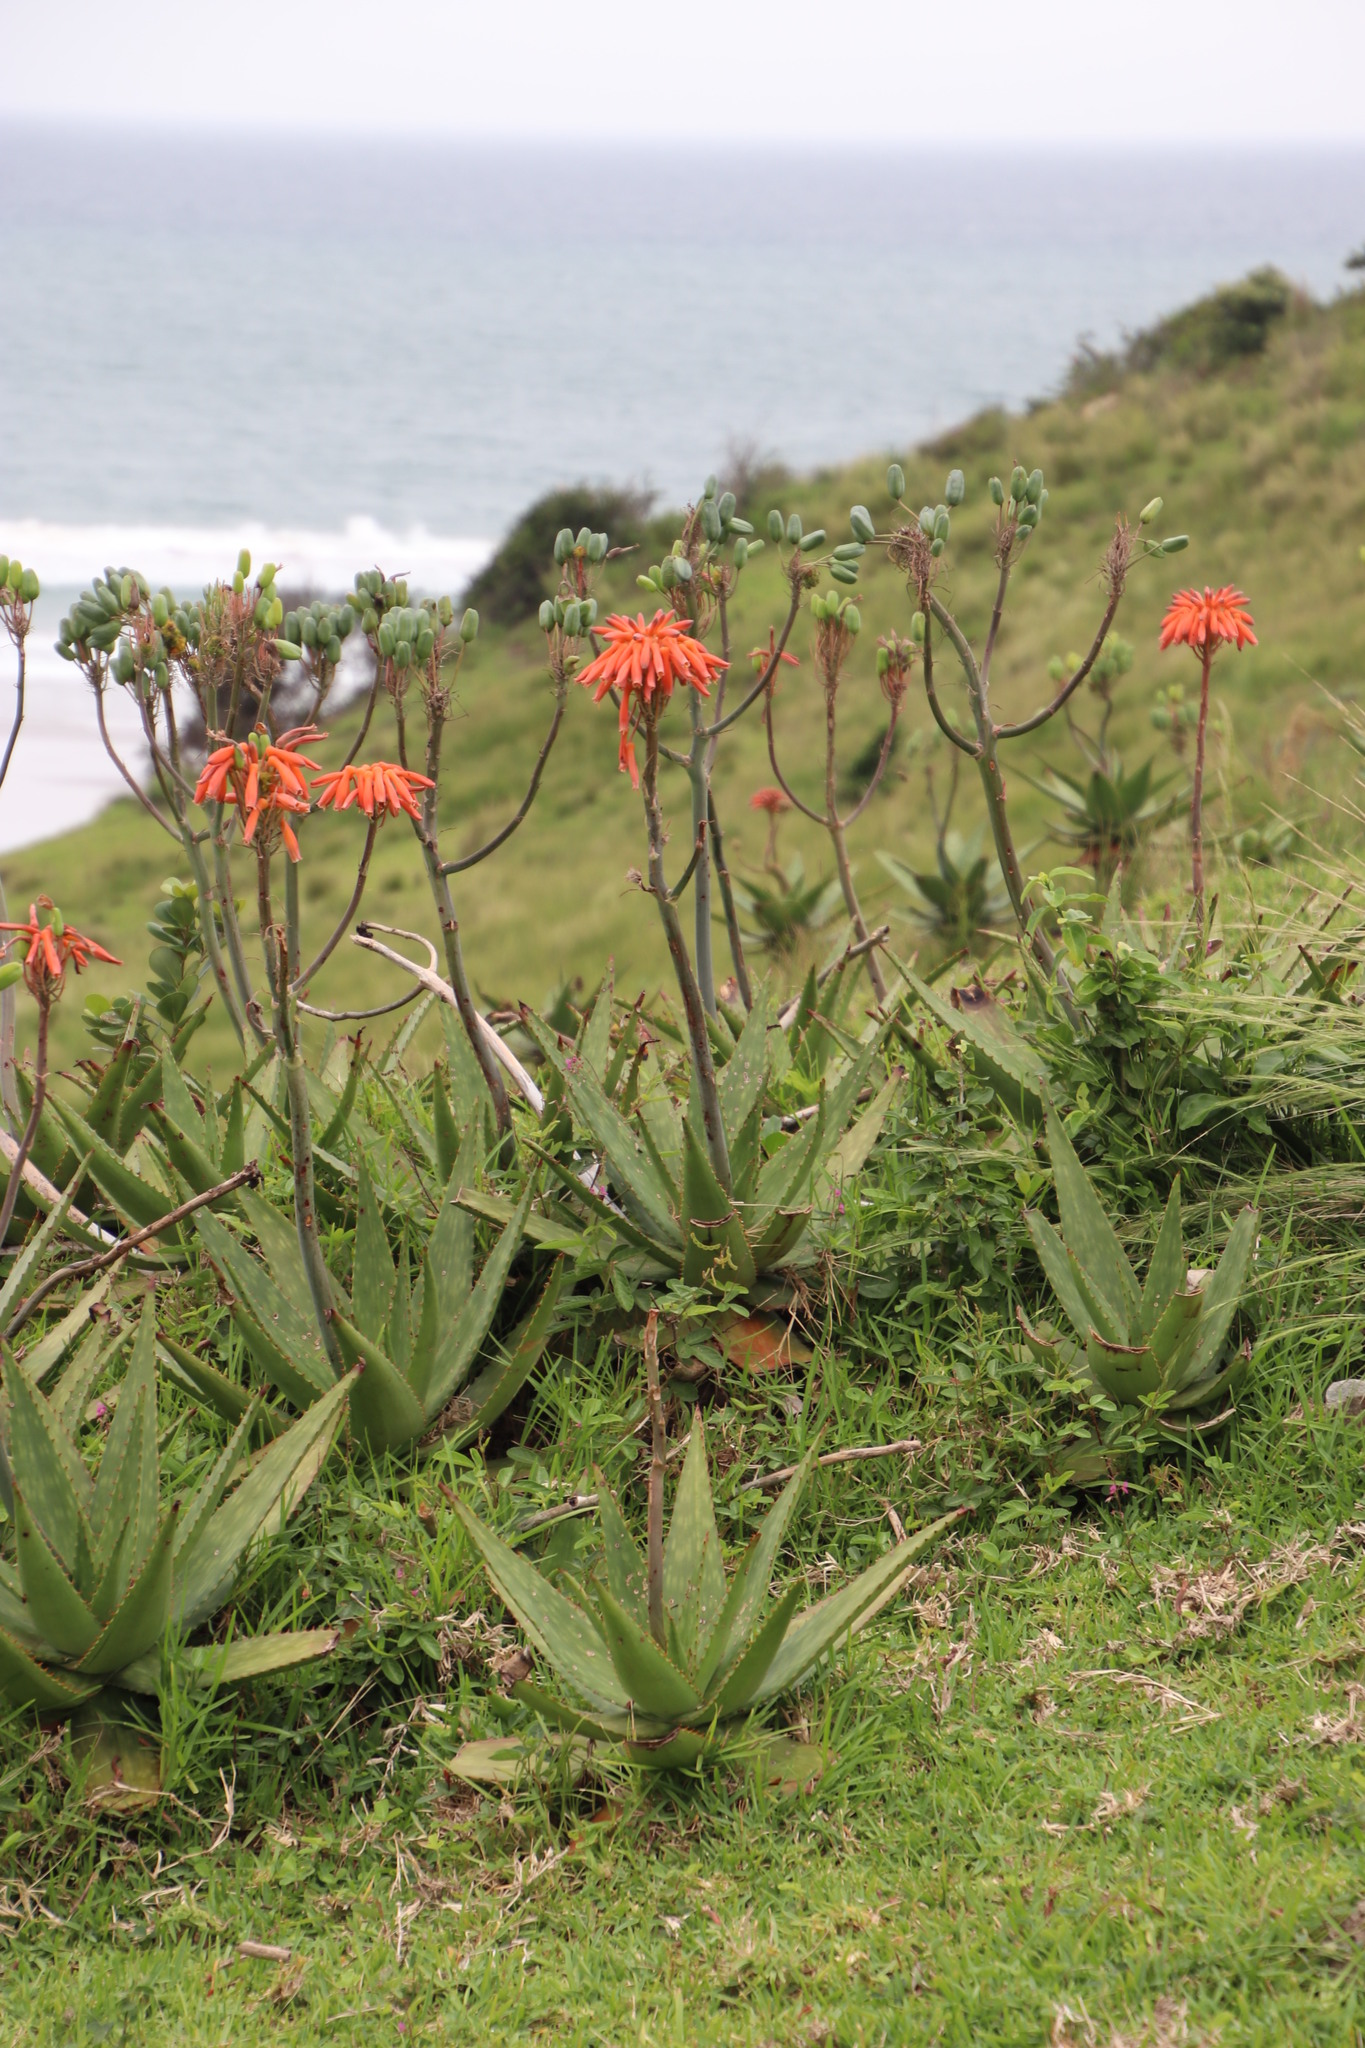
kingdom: Plantae
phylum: Tracheophyta
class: Liliopsida
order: Asparagales
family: Asphodelaceae
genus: Aloe
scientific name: Aloe maculata
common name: Broadleaf aloe
